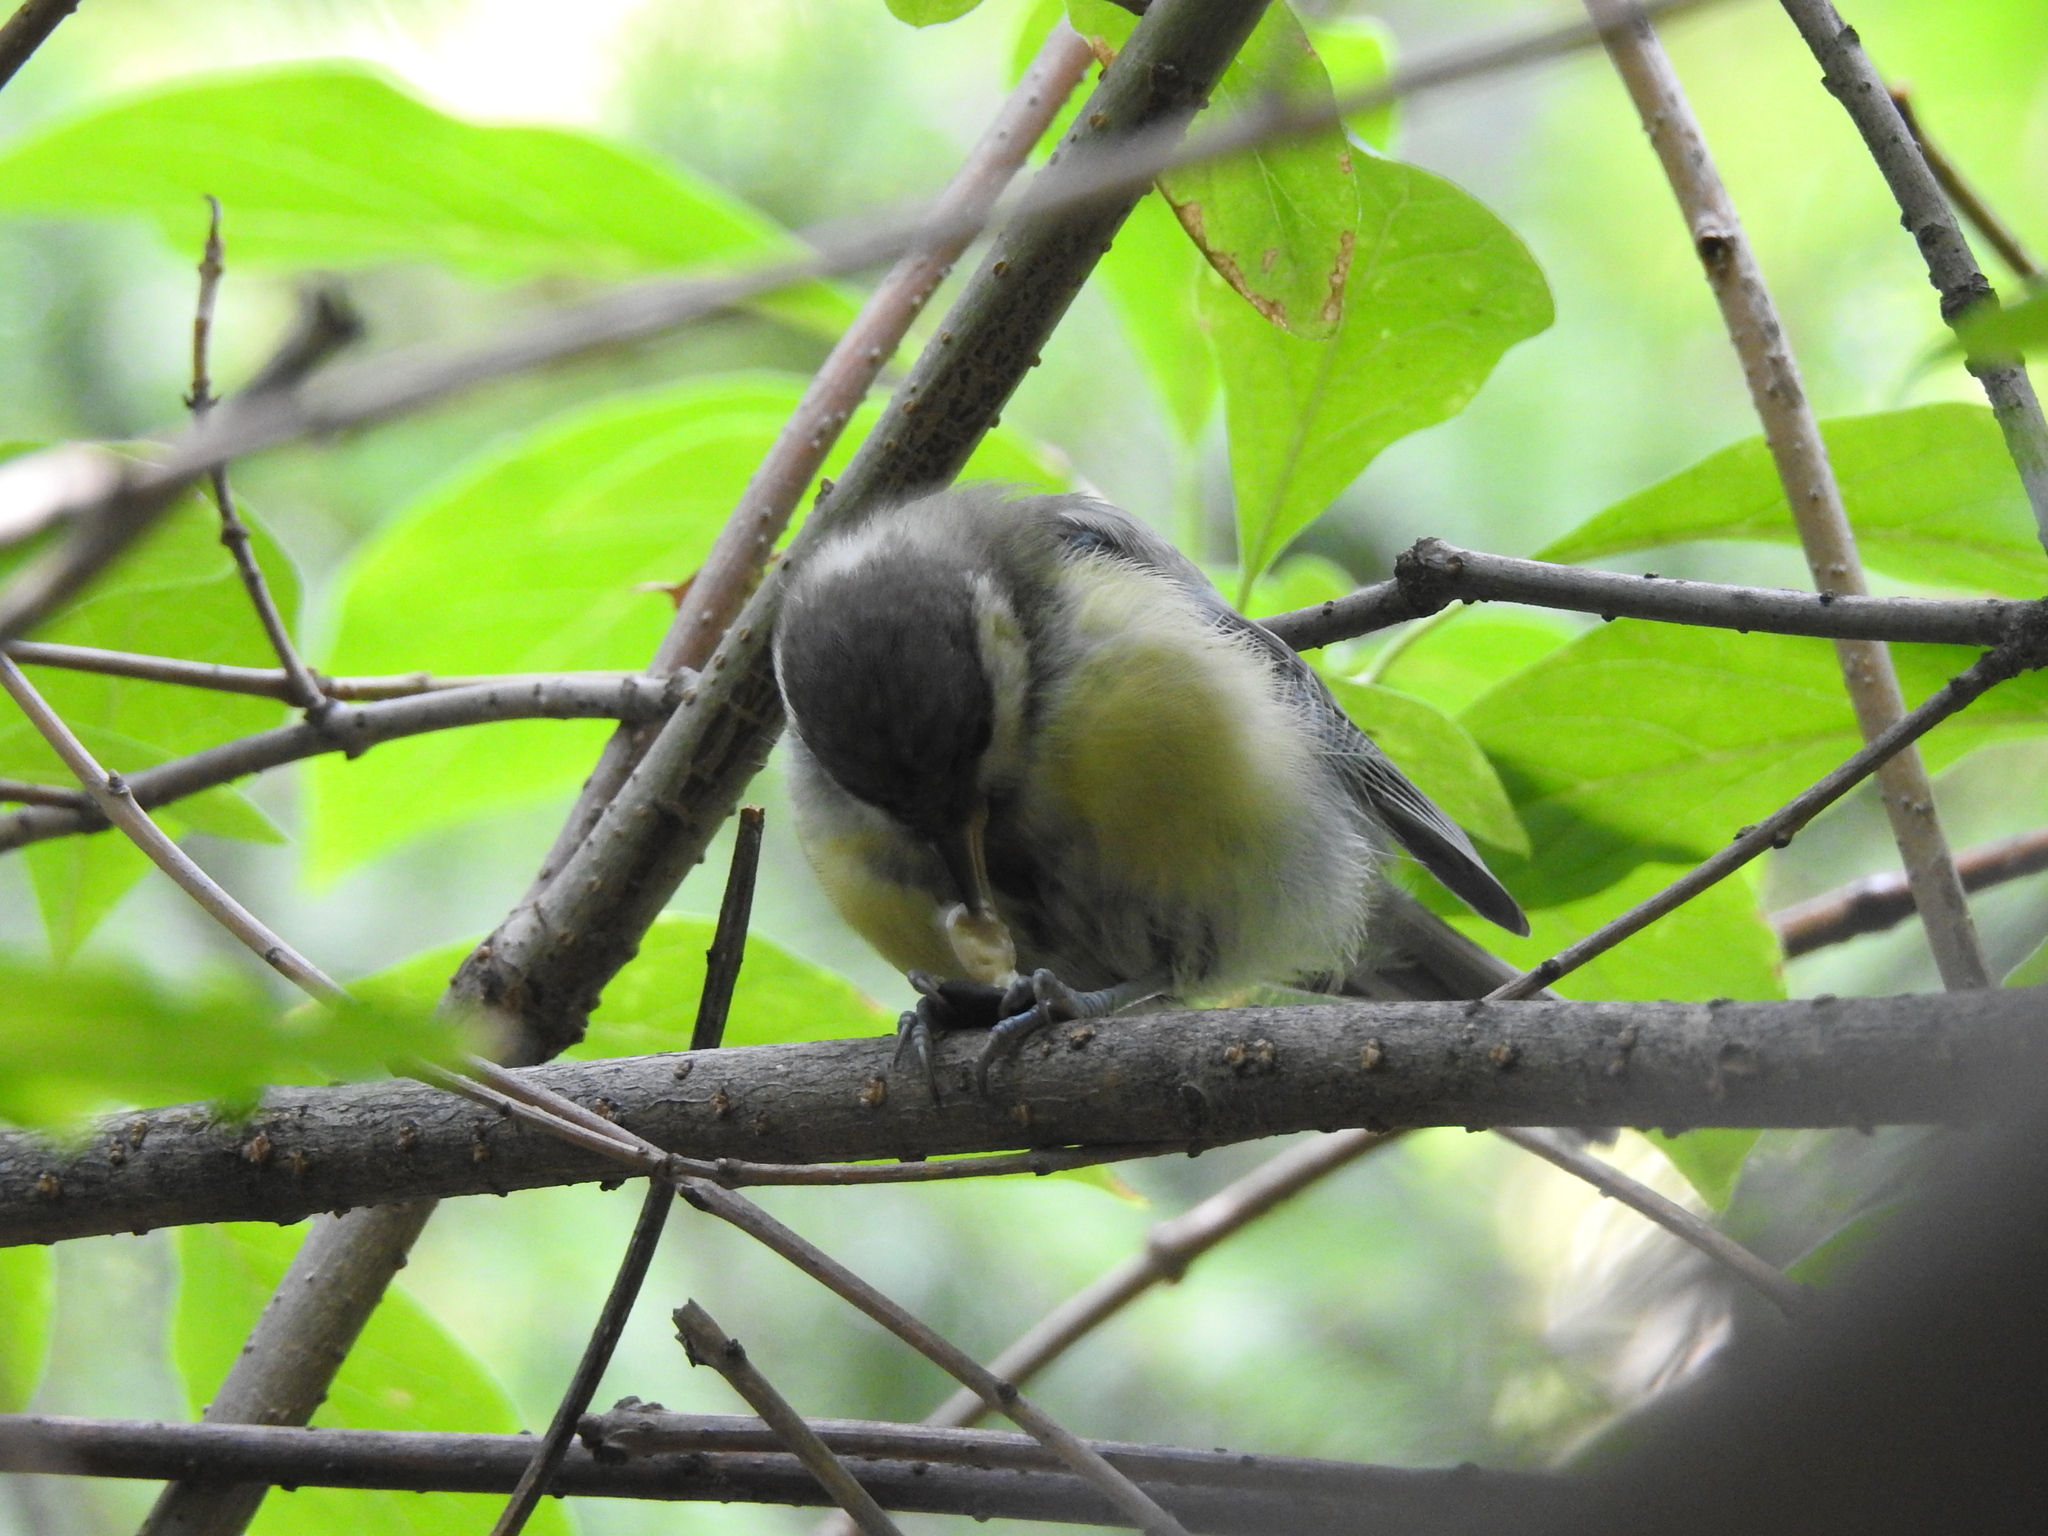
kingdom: Animalia
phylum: Chordata
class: Aves
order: Passeriformes
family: Paridae
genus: Parus
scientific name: Parus major
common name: Great tit
